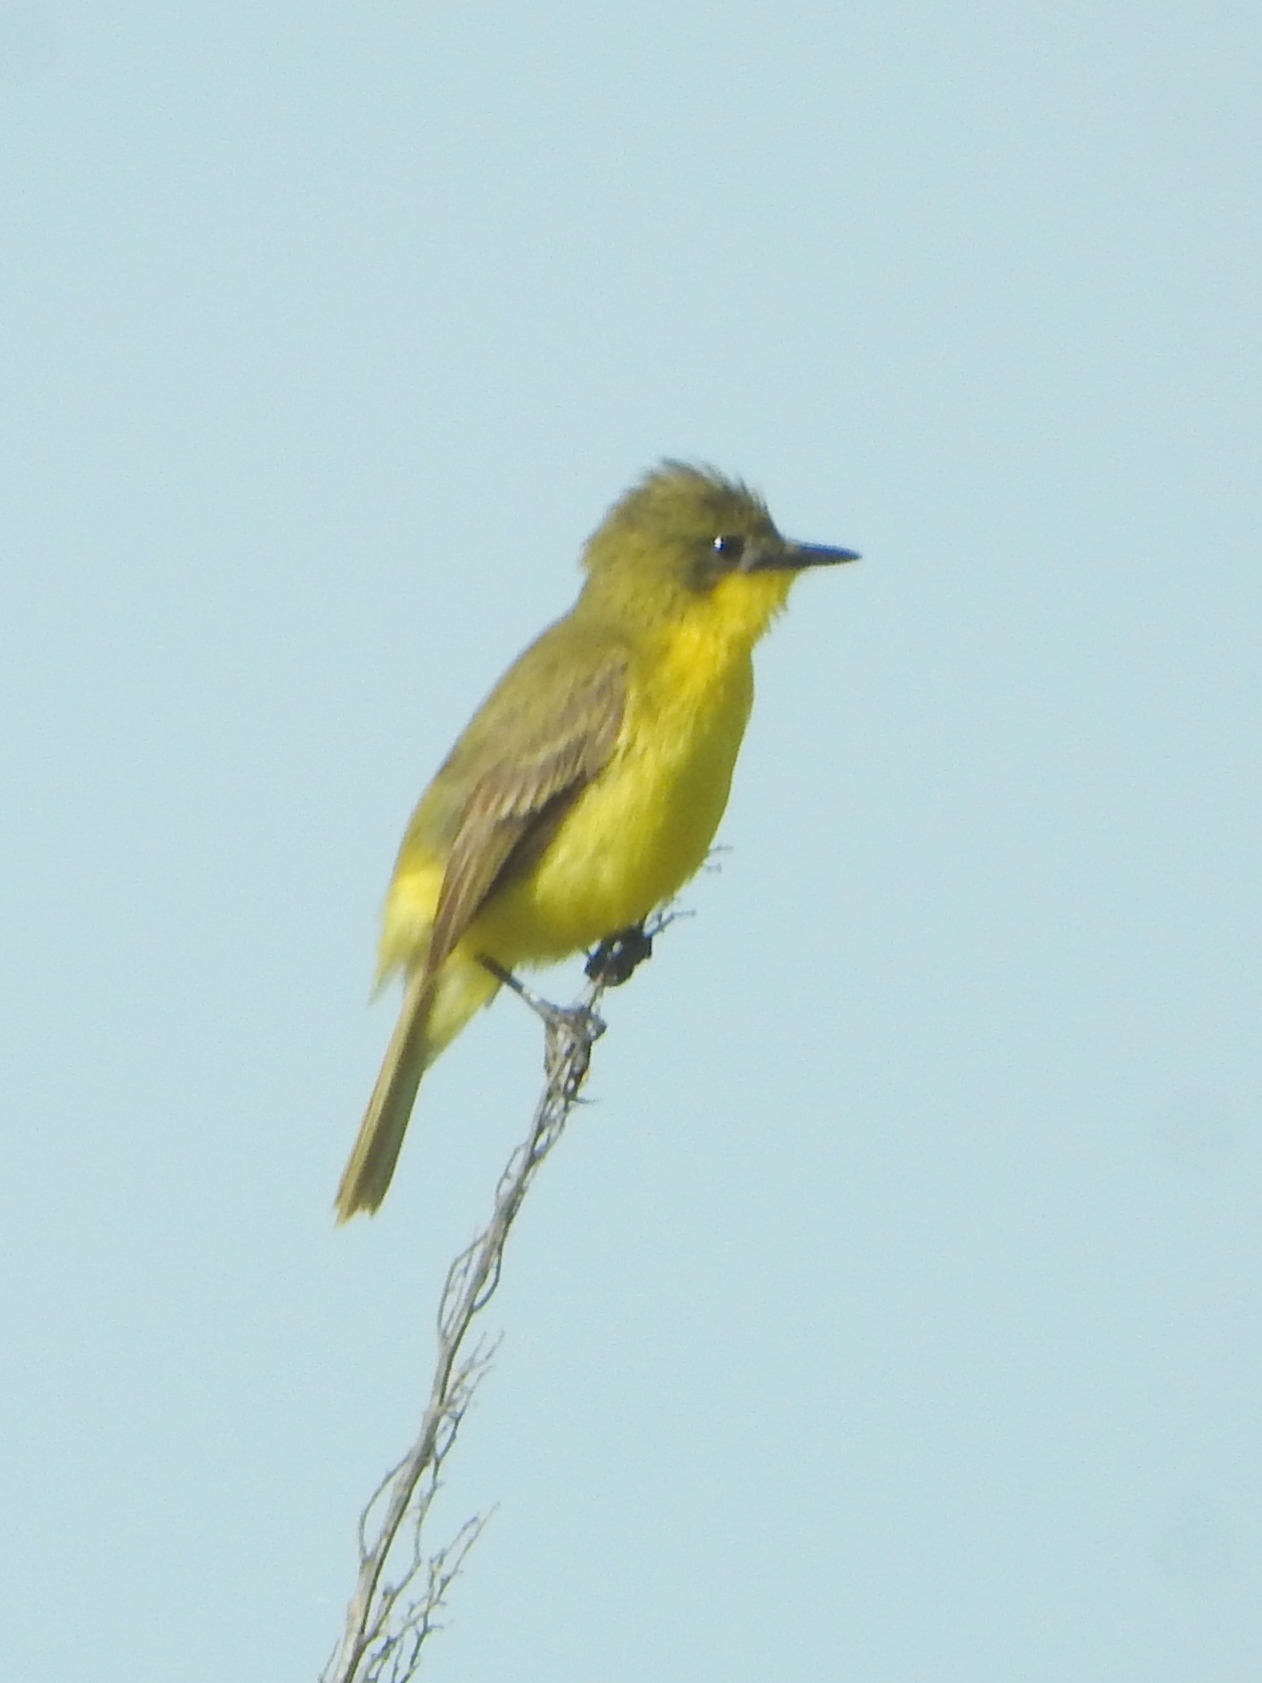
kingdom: Animalia
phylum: Chordata
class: Aves
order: Passeriformes
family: Tyrannidae
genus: Pseudocolopteryx
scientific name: Pseudocolopteryx acutipennis
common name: Subtropical doradito
